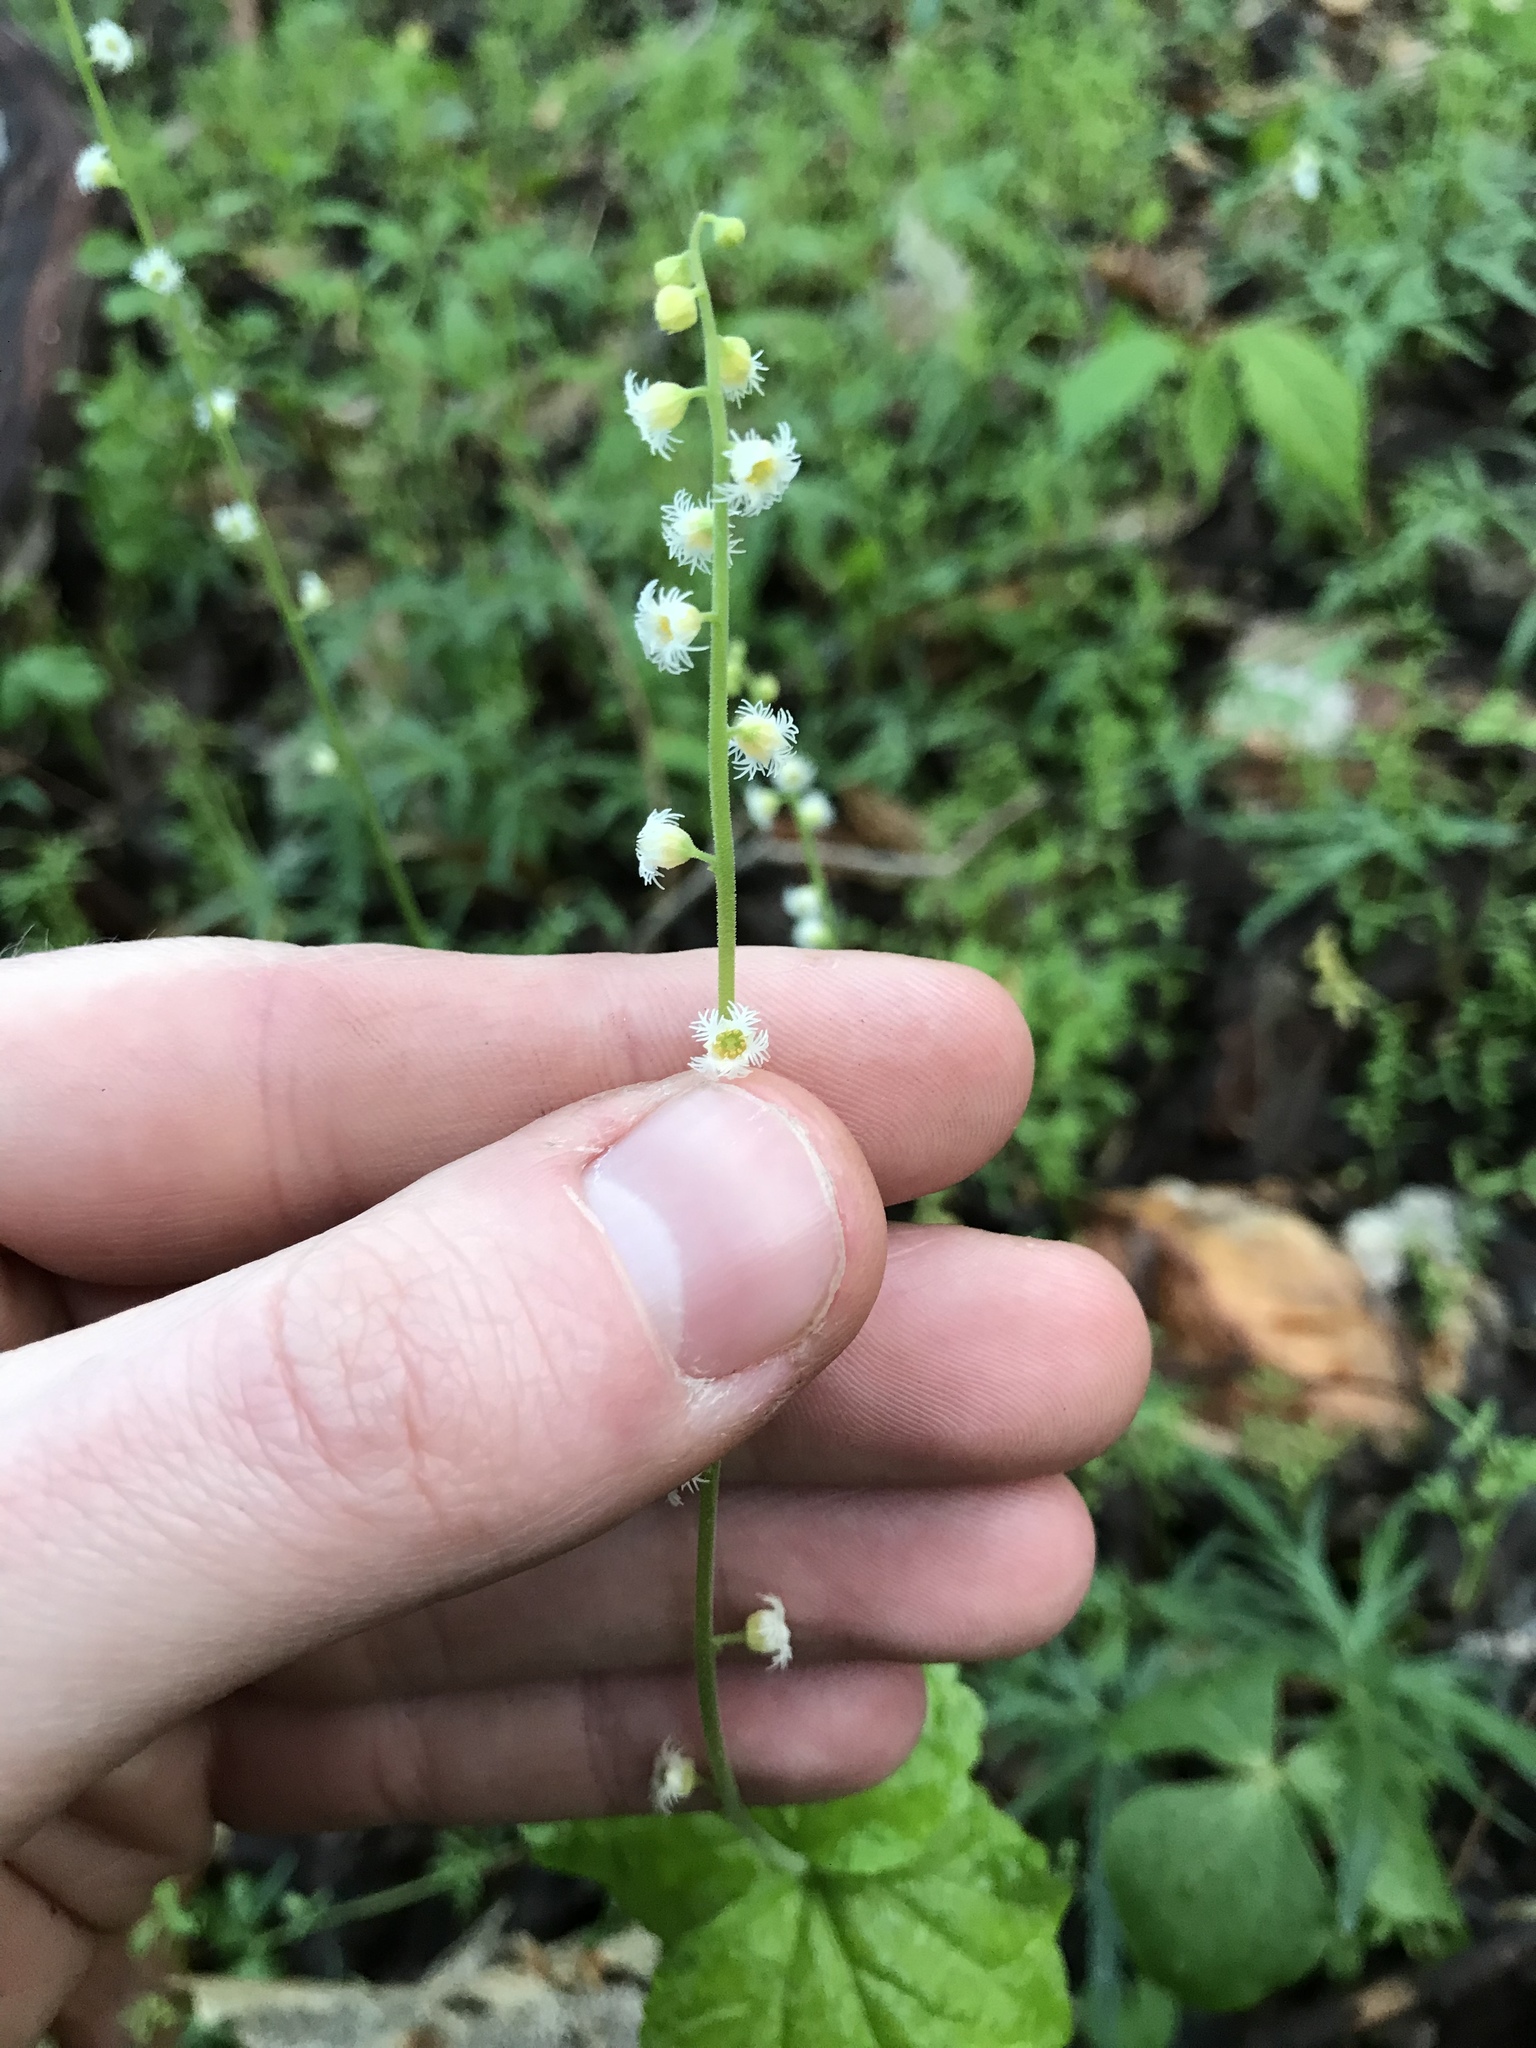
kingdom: Plantae
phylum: Tracheophyta
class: Magnoliopsida
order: Saxifragales
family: Saxifragaceae
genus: Mitella
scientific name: Mitella diphylla
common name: Coolwort
